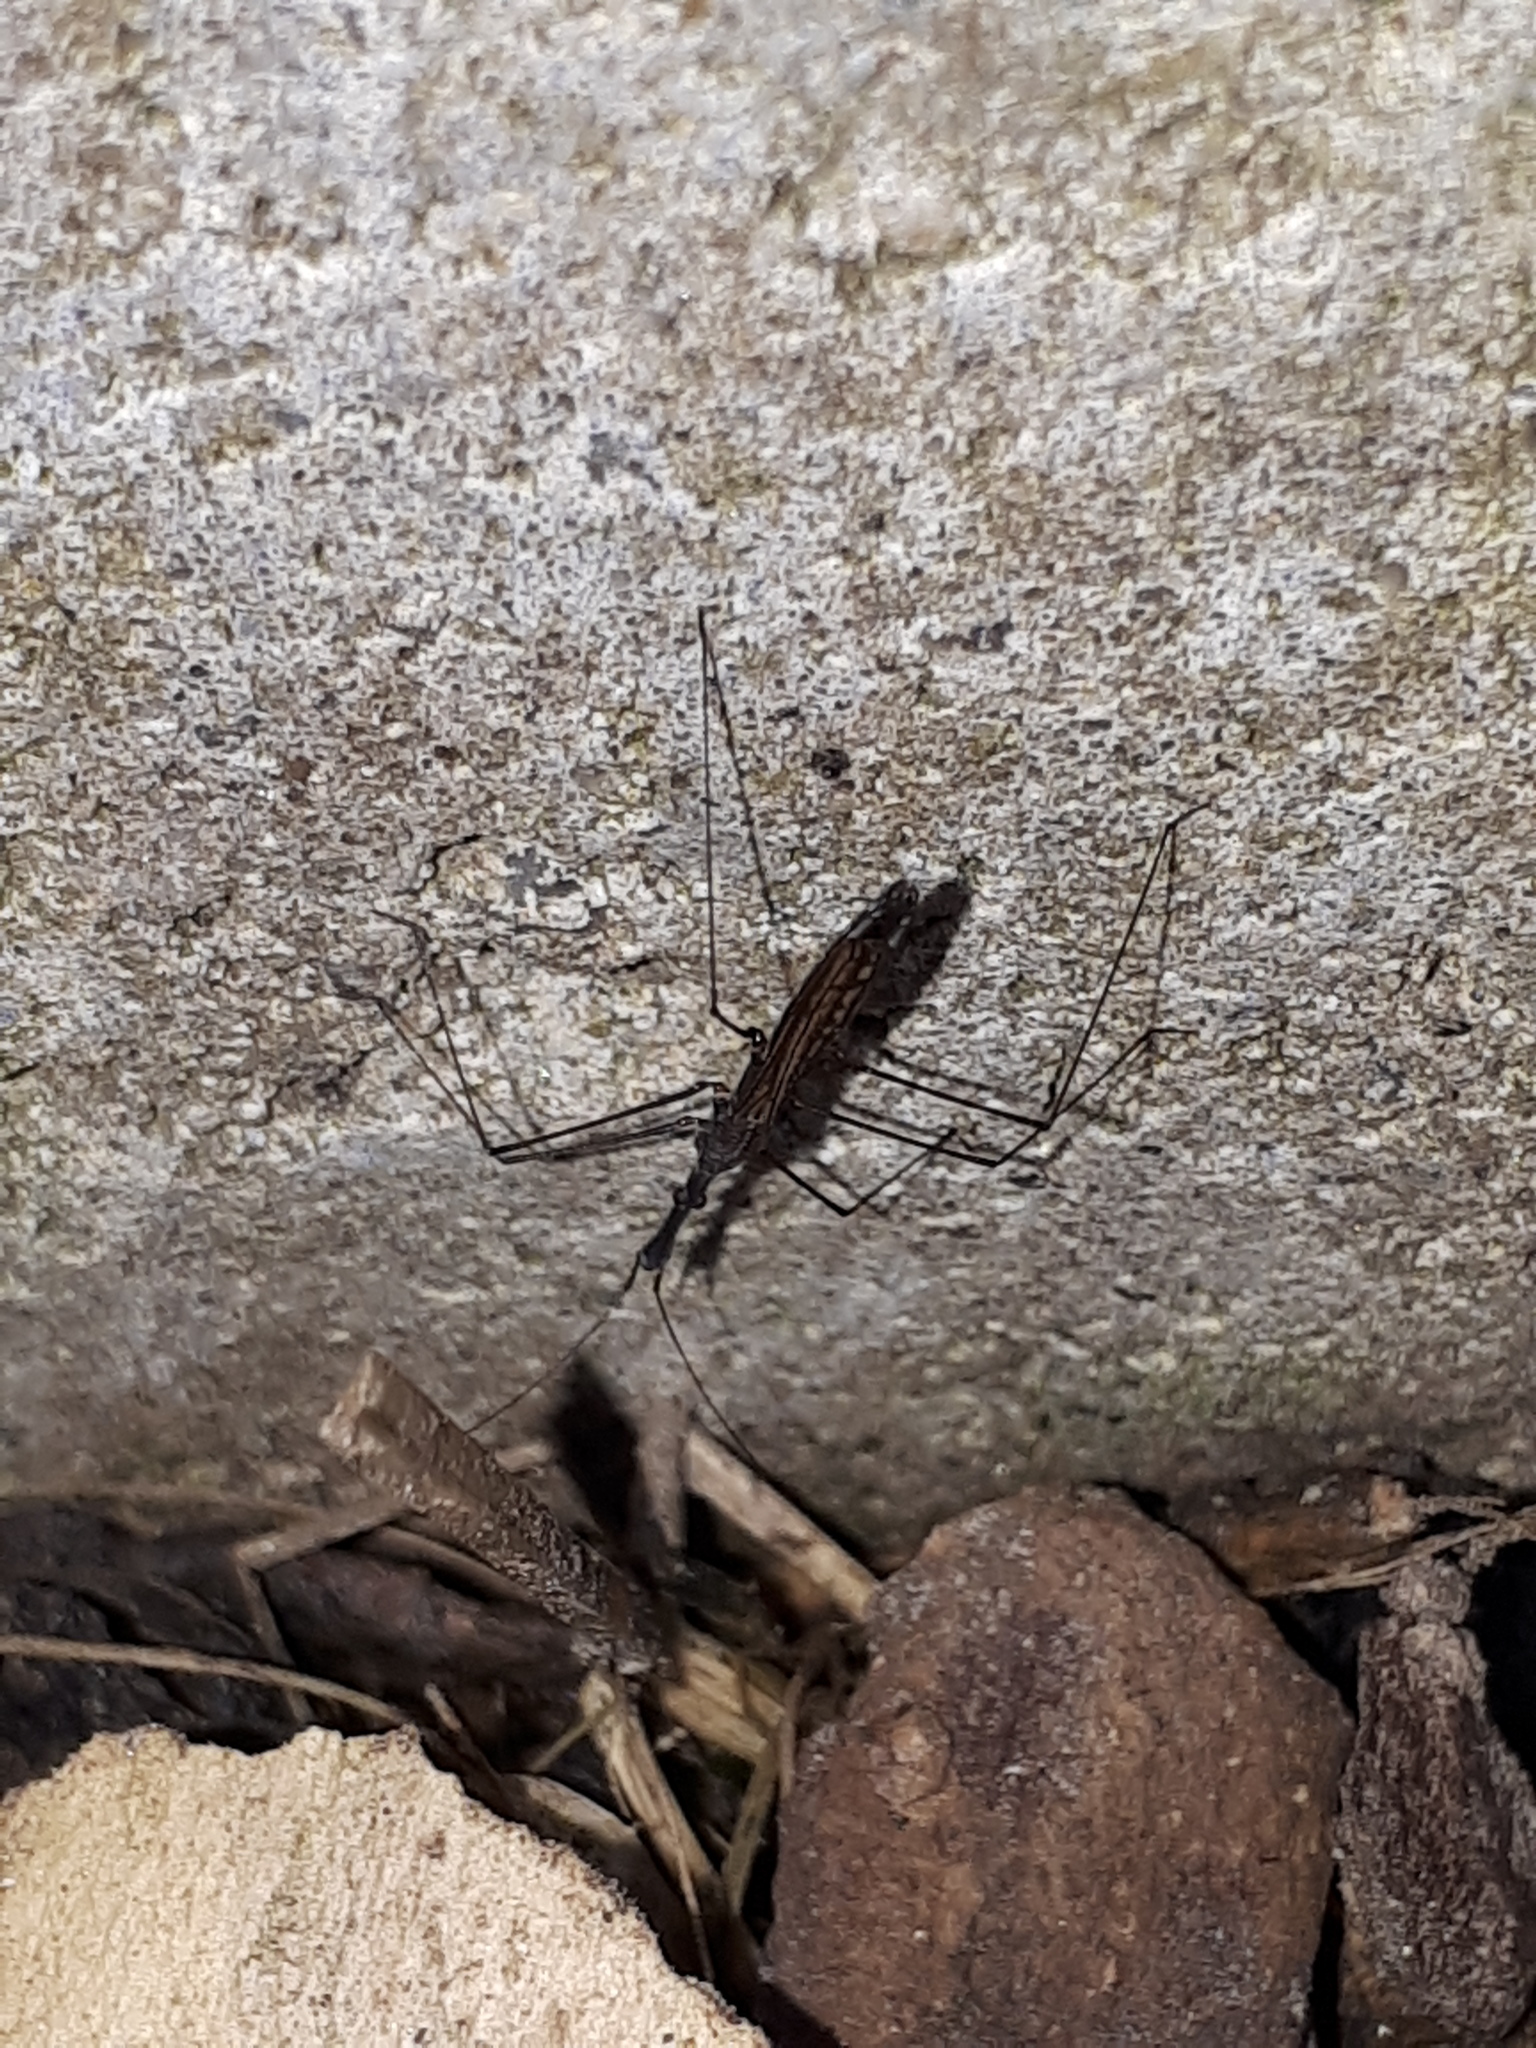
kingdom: Animalia
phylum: Arthropoda
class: Insecta
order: Hemiptera
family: Hydrometridae
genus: Hydrometra
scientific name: Hydrometra stagnorum
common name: Water measurer
